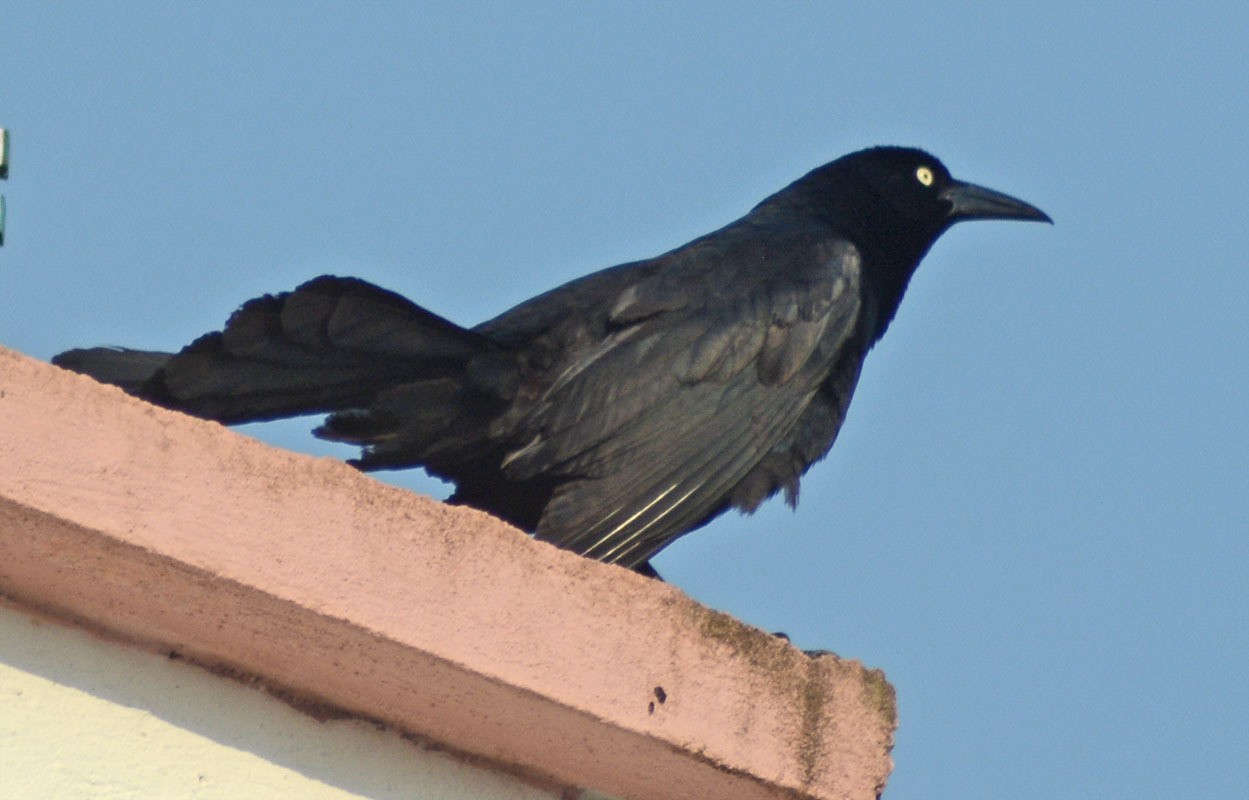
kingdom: Animalia
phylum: Chordata
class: Aves
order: Passeriformes
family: Icteridae
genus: Quiscalus
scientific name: Quiscalus mexicanus
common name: Great-tailed grackle
